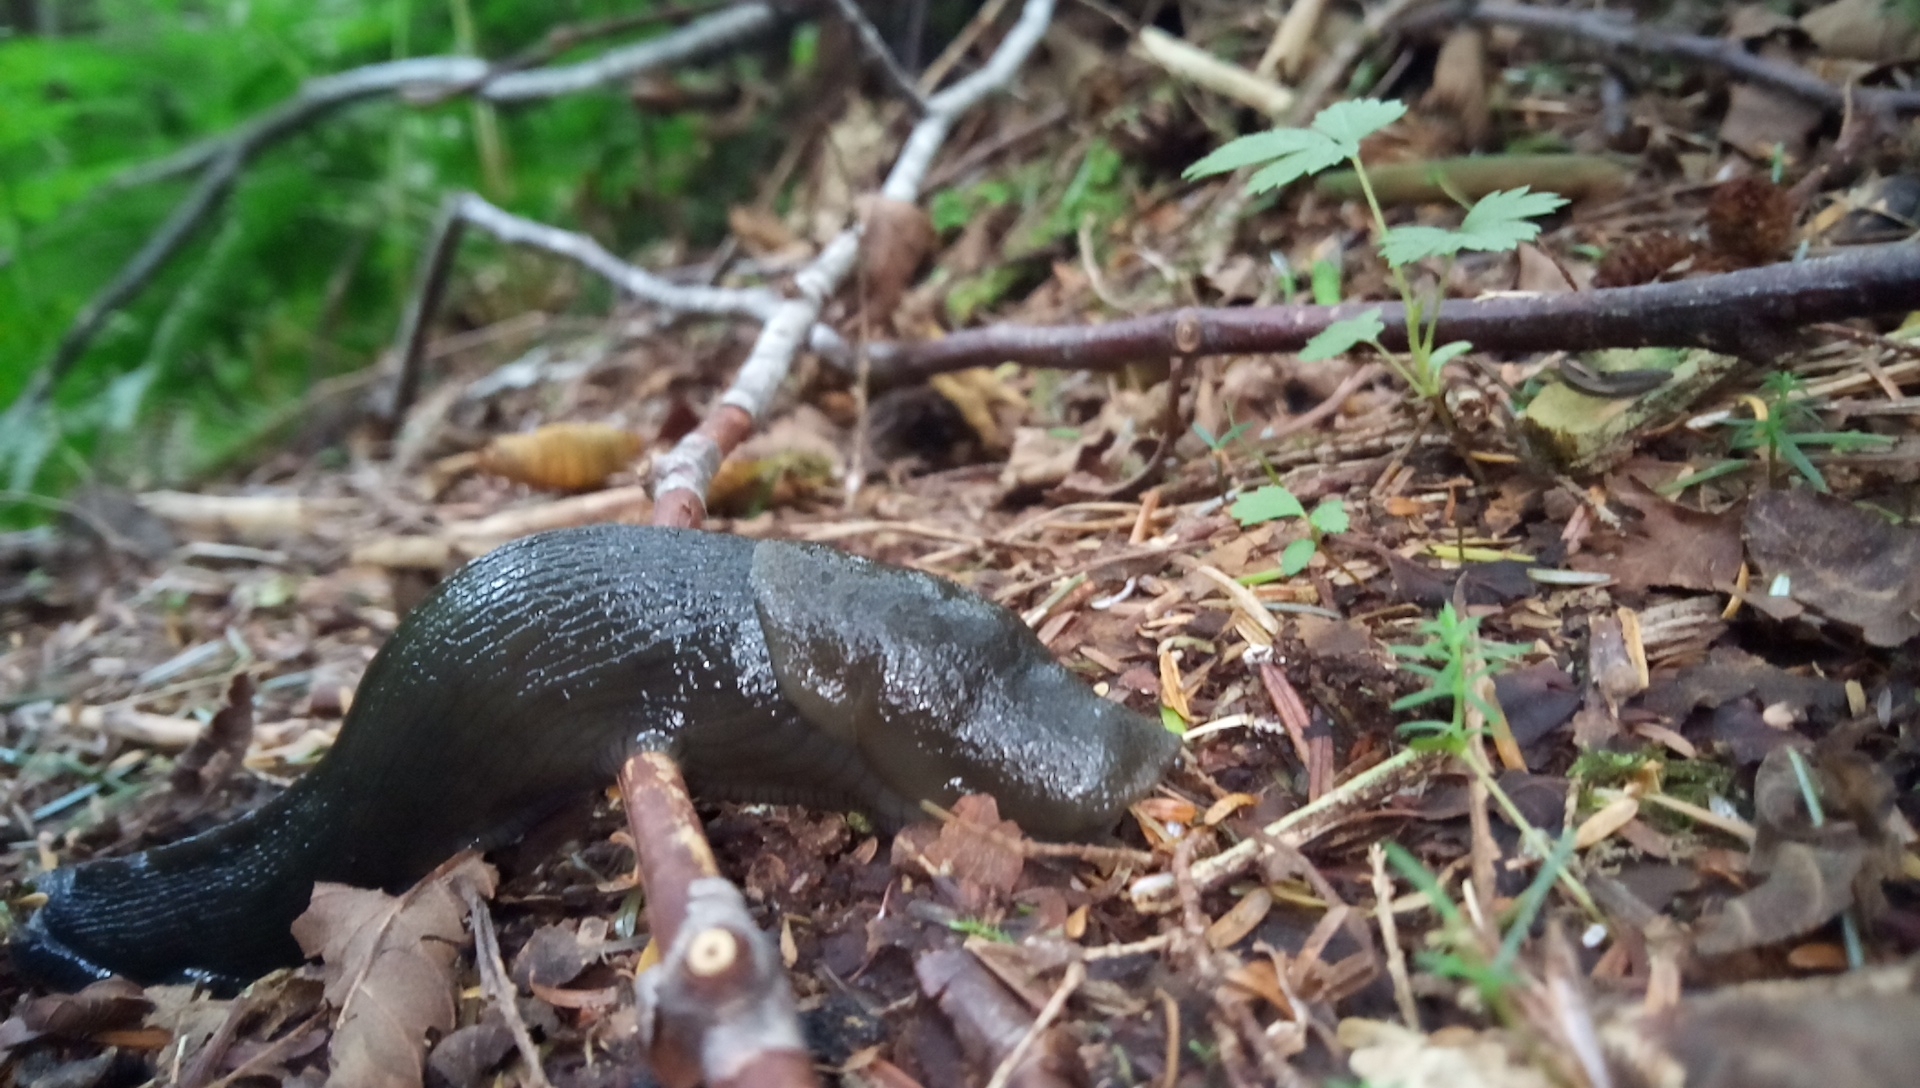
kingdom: Animalia
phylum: Mollusca
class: Gastropoda
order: Stylommatophora
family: Ariolimacidae
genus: Ariolimax
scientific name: Ariolimax columbianus
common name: Pacific banana slug
